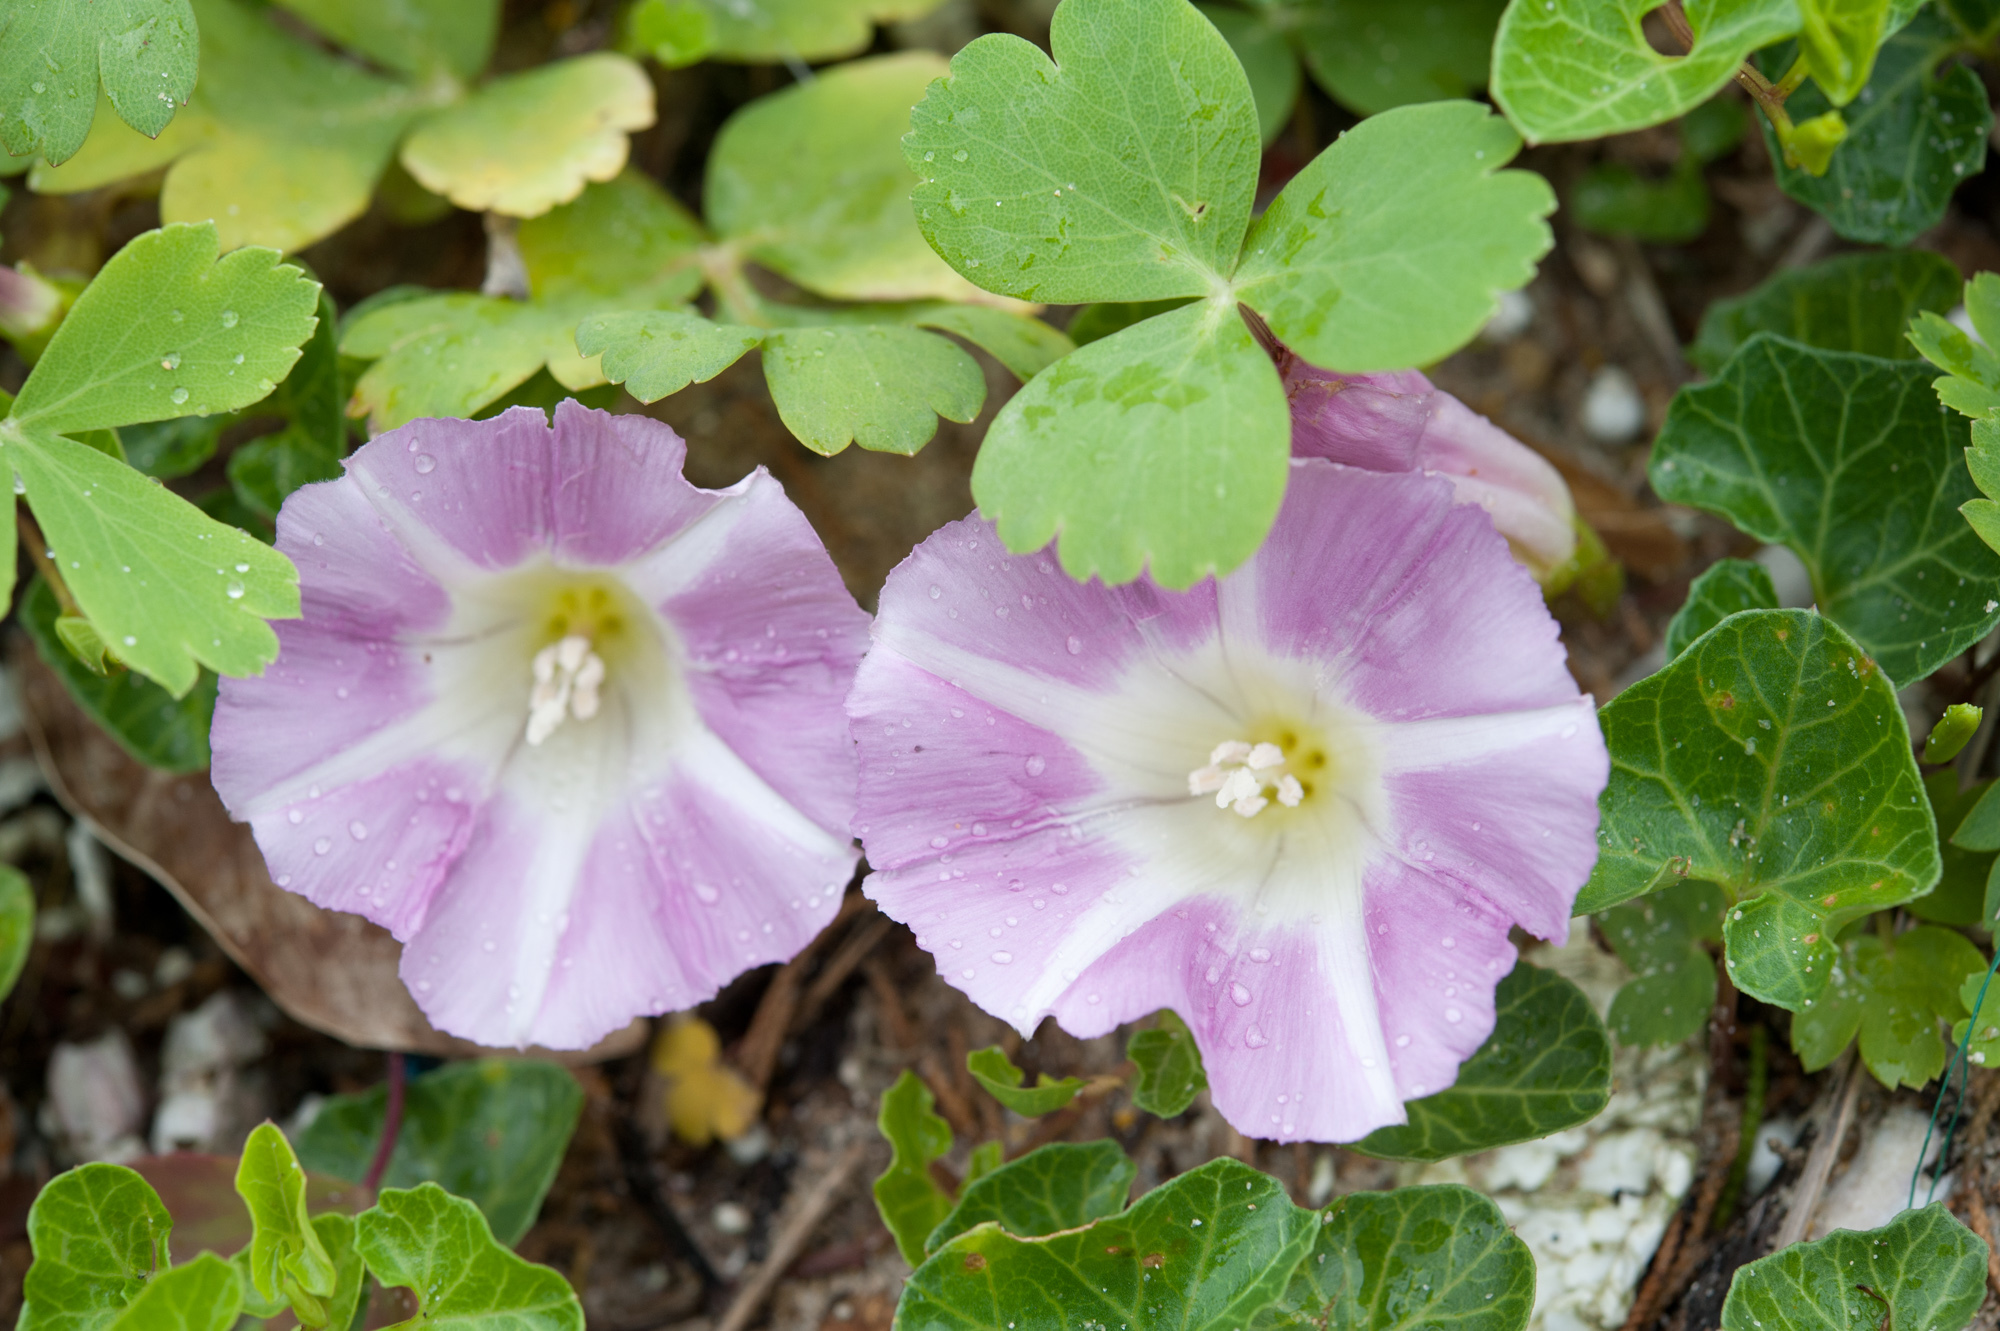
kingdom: Plantae
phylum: Tracheophyta
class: Magnoliopsida
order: Solanales
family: Convolvulaceae
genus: Calystegia
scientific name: Calystegia soldanella
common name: Sea bindweed
